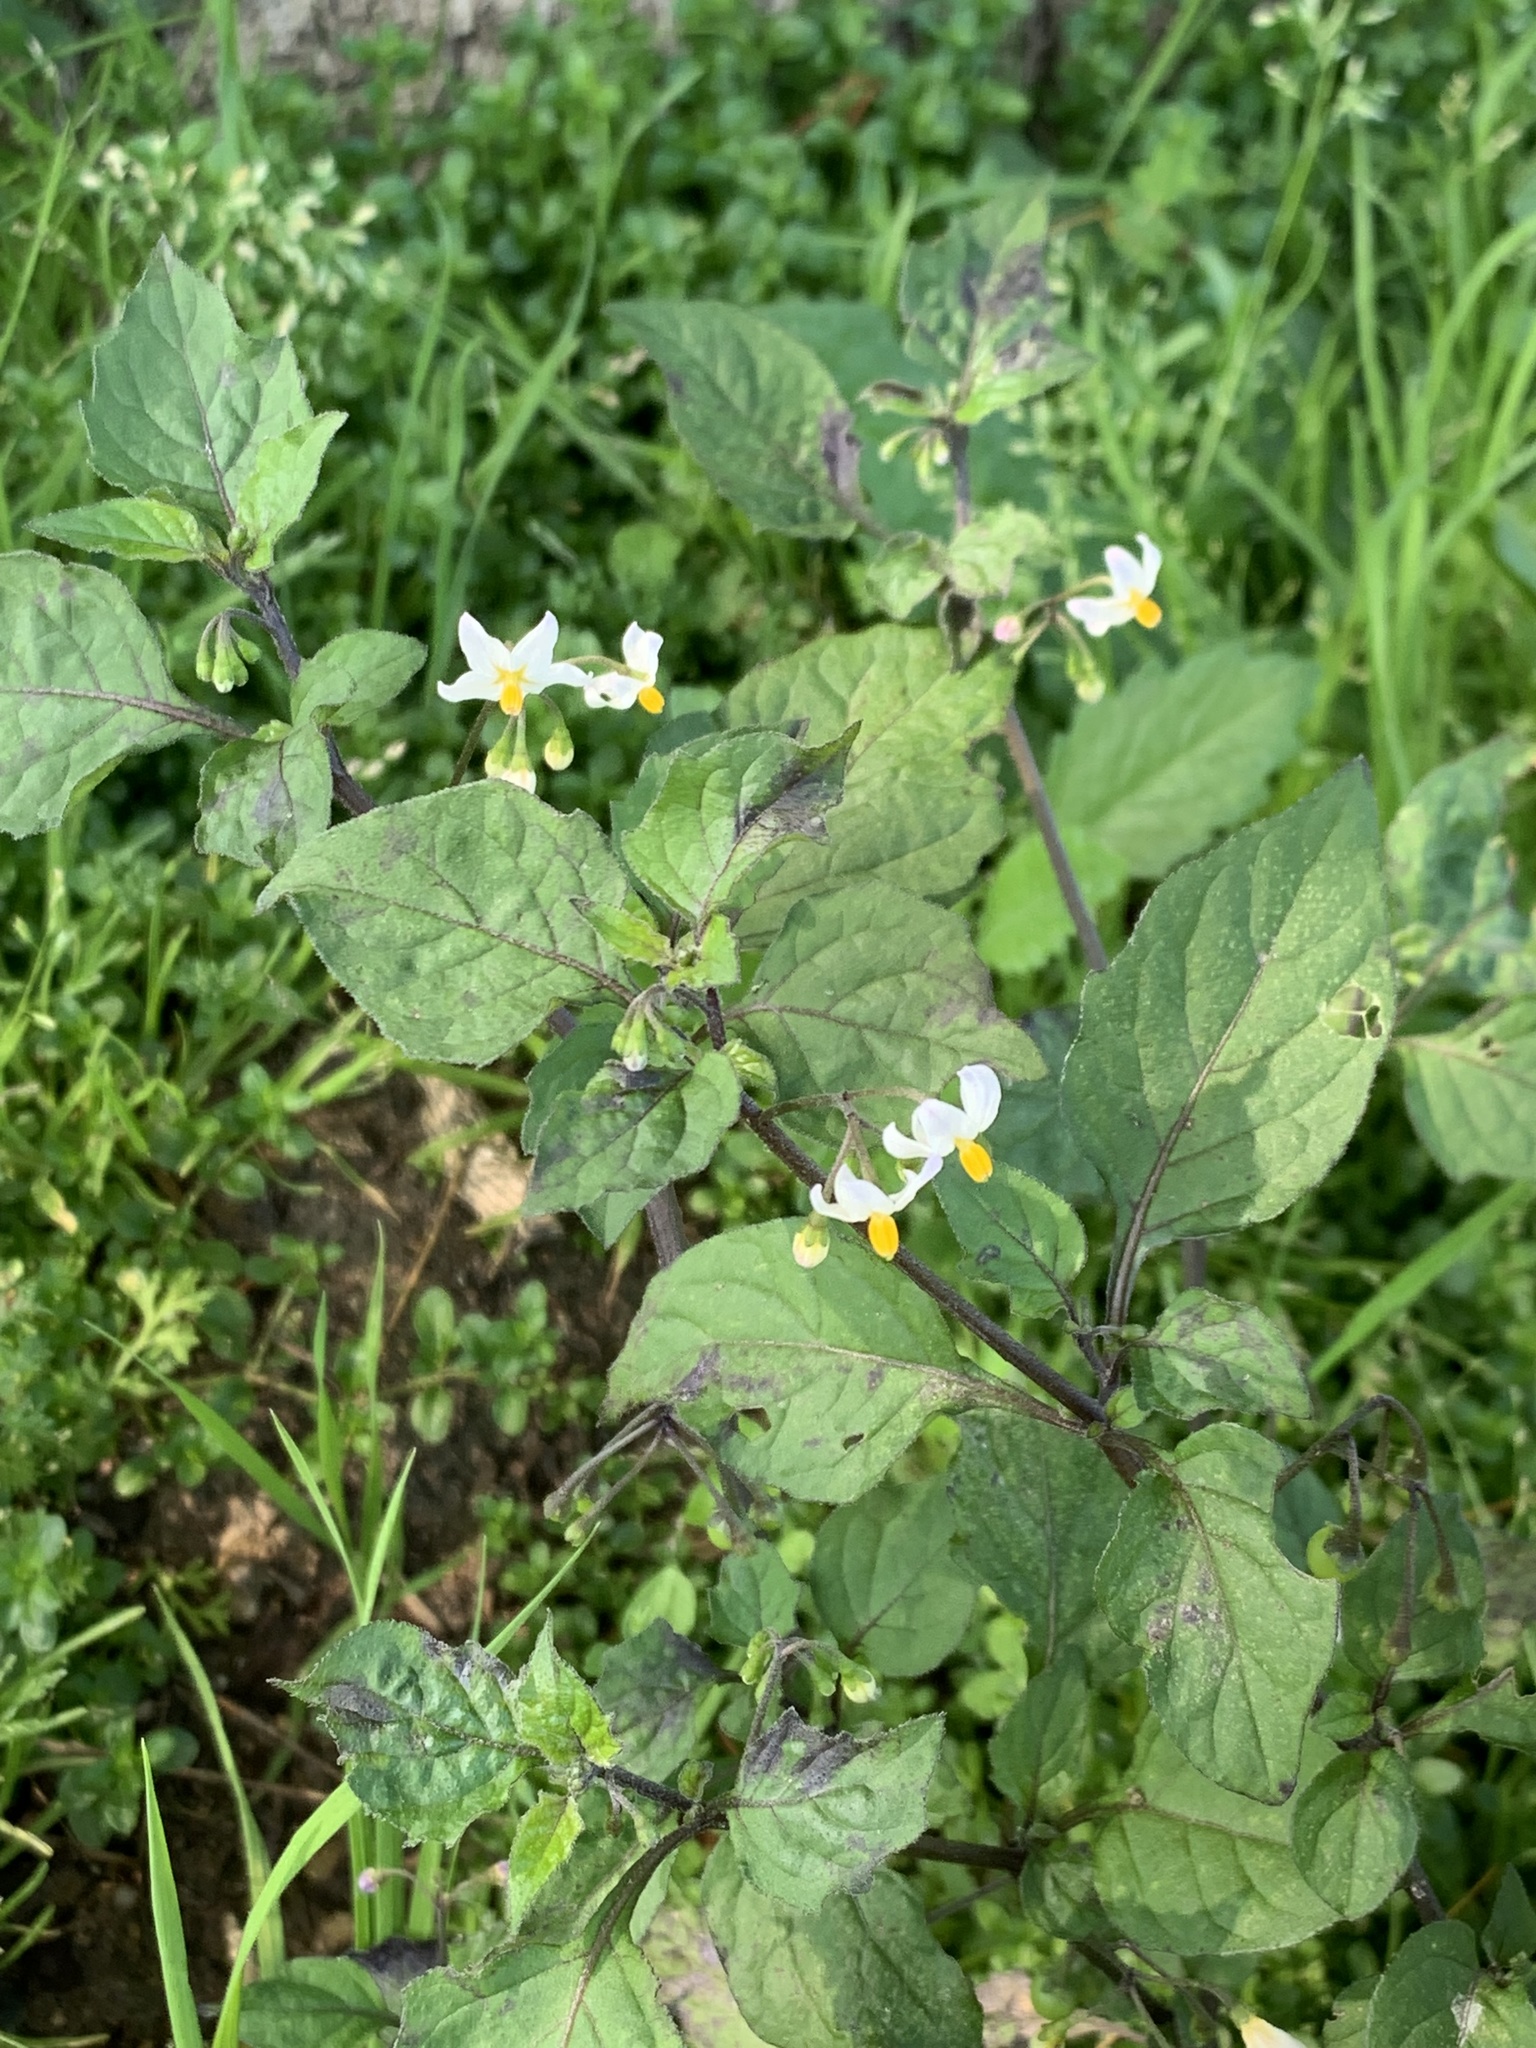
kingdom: Plantae
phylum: Tracheophyta
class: Magnoliopsida
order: Solanales
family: Solanaceae
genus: Solanum
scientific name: Solanum nigrum
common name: Black nightshade
